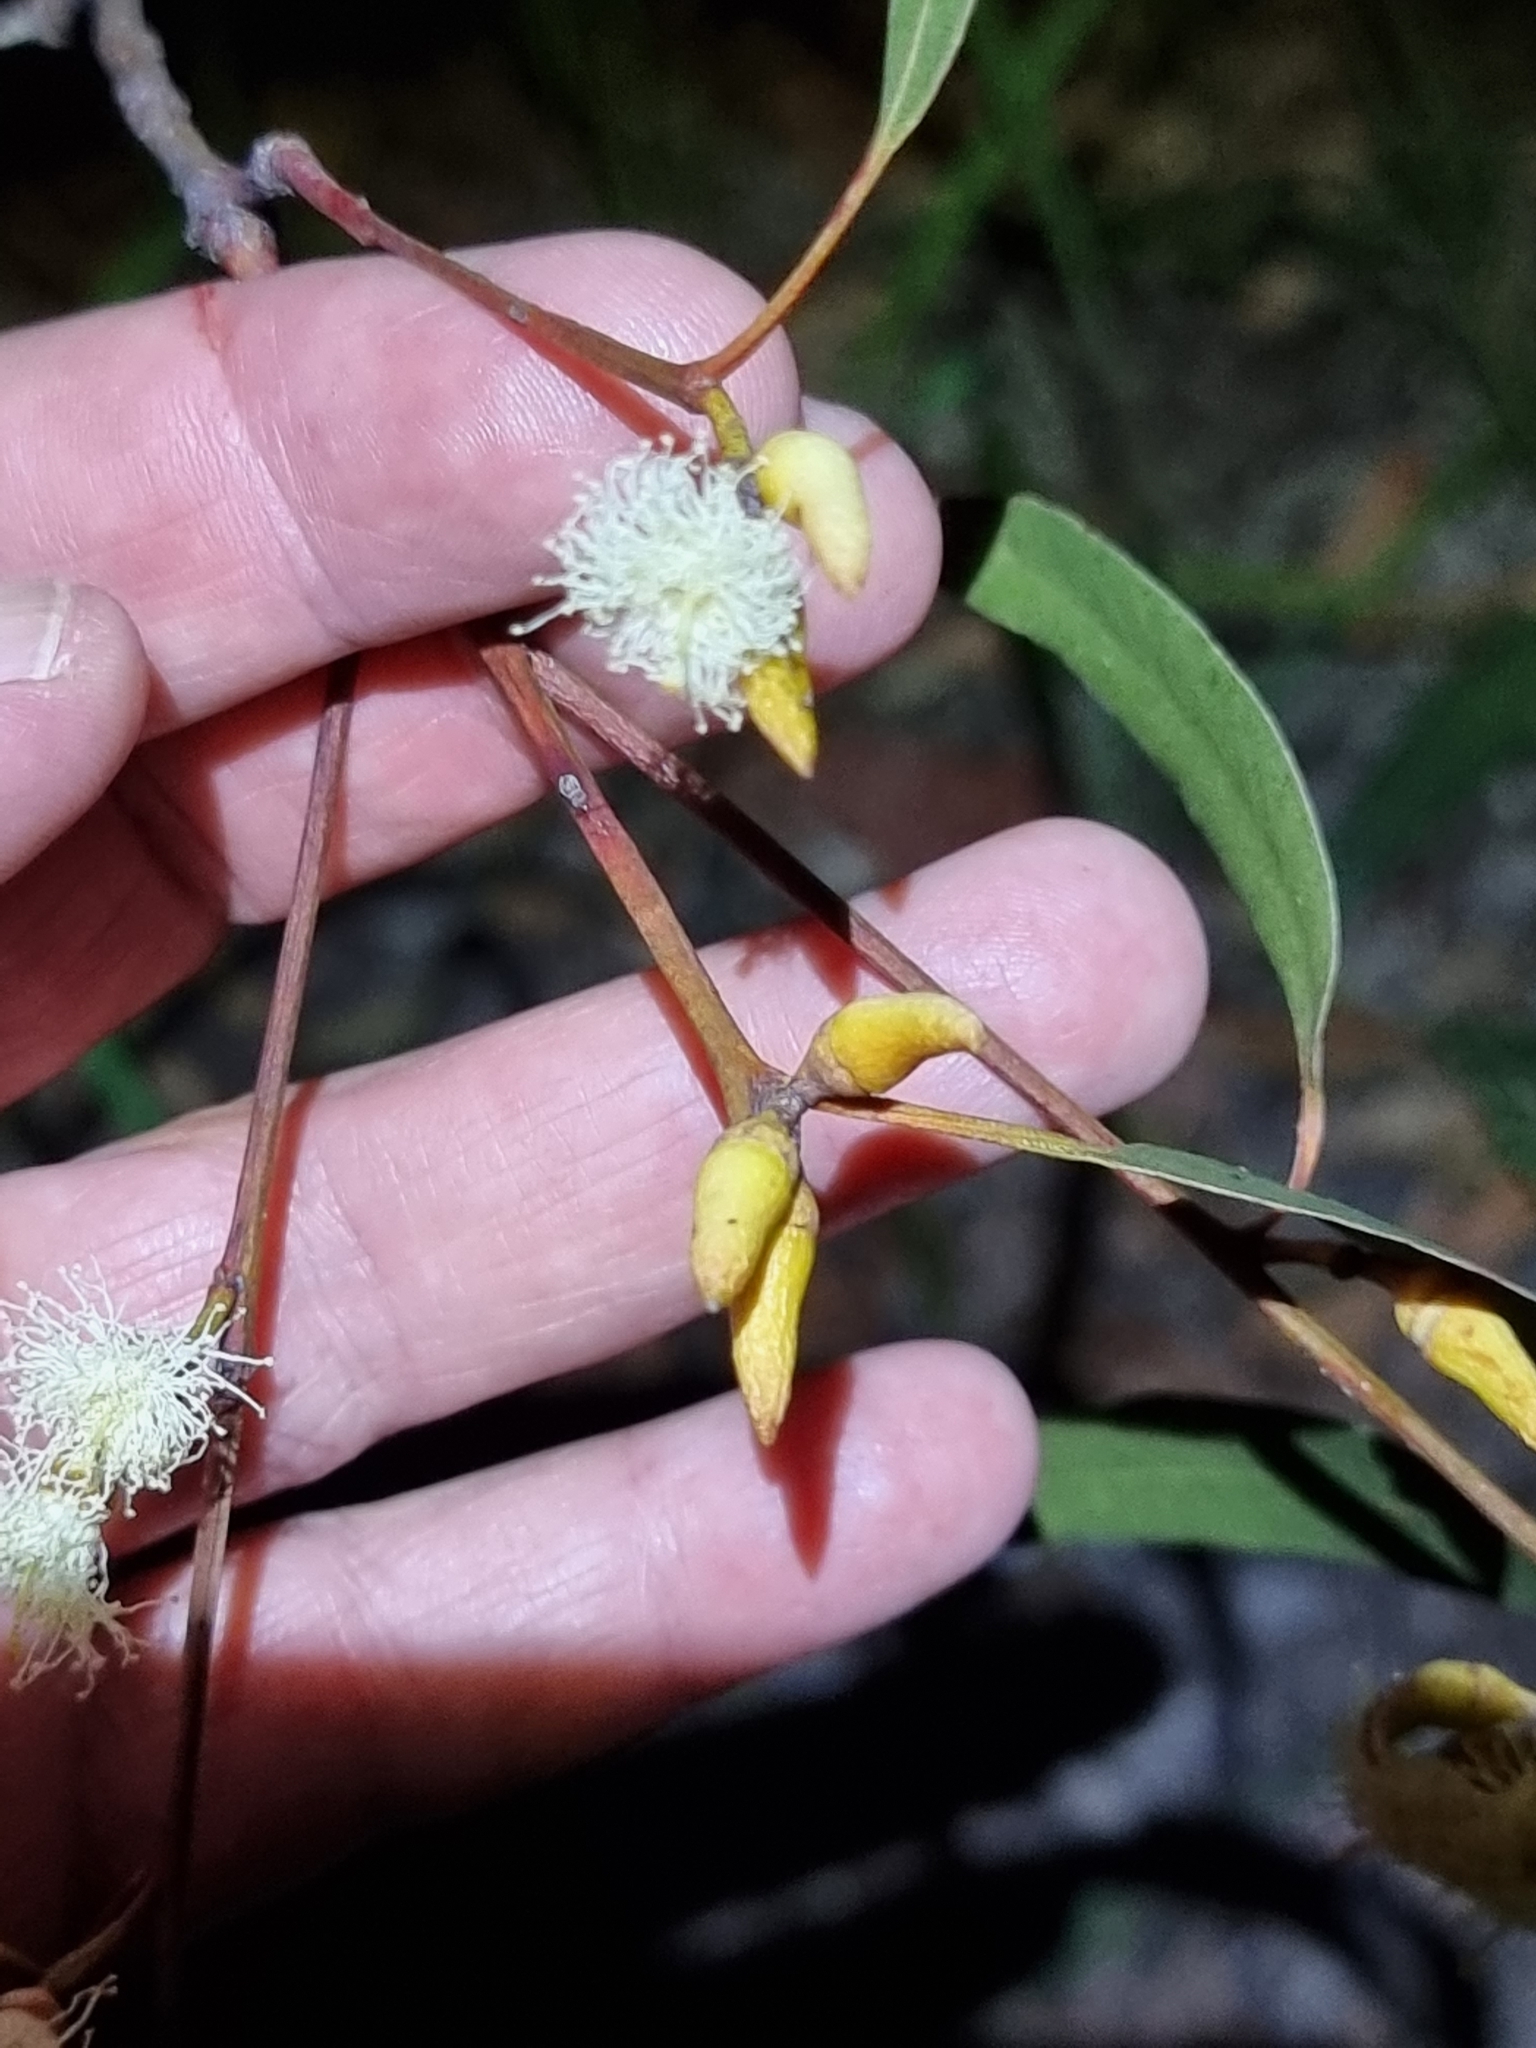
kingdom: Plantae
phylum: Tracheophyta
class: Magnoliopsida
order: Myrtales
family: Myrtaceae
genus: Eucalyptus
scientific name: Eucalyptus tereticornis
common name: Forest redgum
